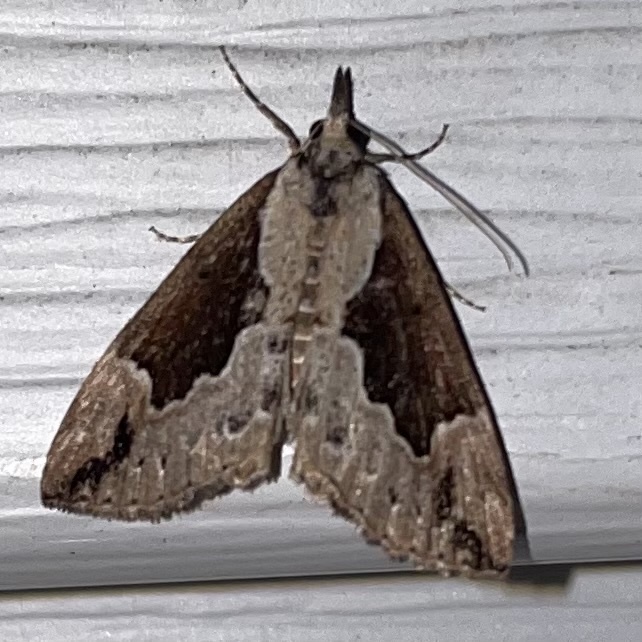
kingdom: Animalia
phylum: Arthropoda
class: Insecta
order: Lepidoptera
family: Erebidae
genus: Hypena
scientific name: Hypena baltimoralis
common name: Baltimore snout
